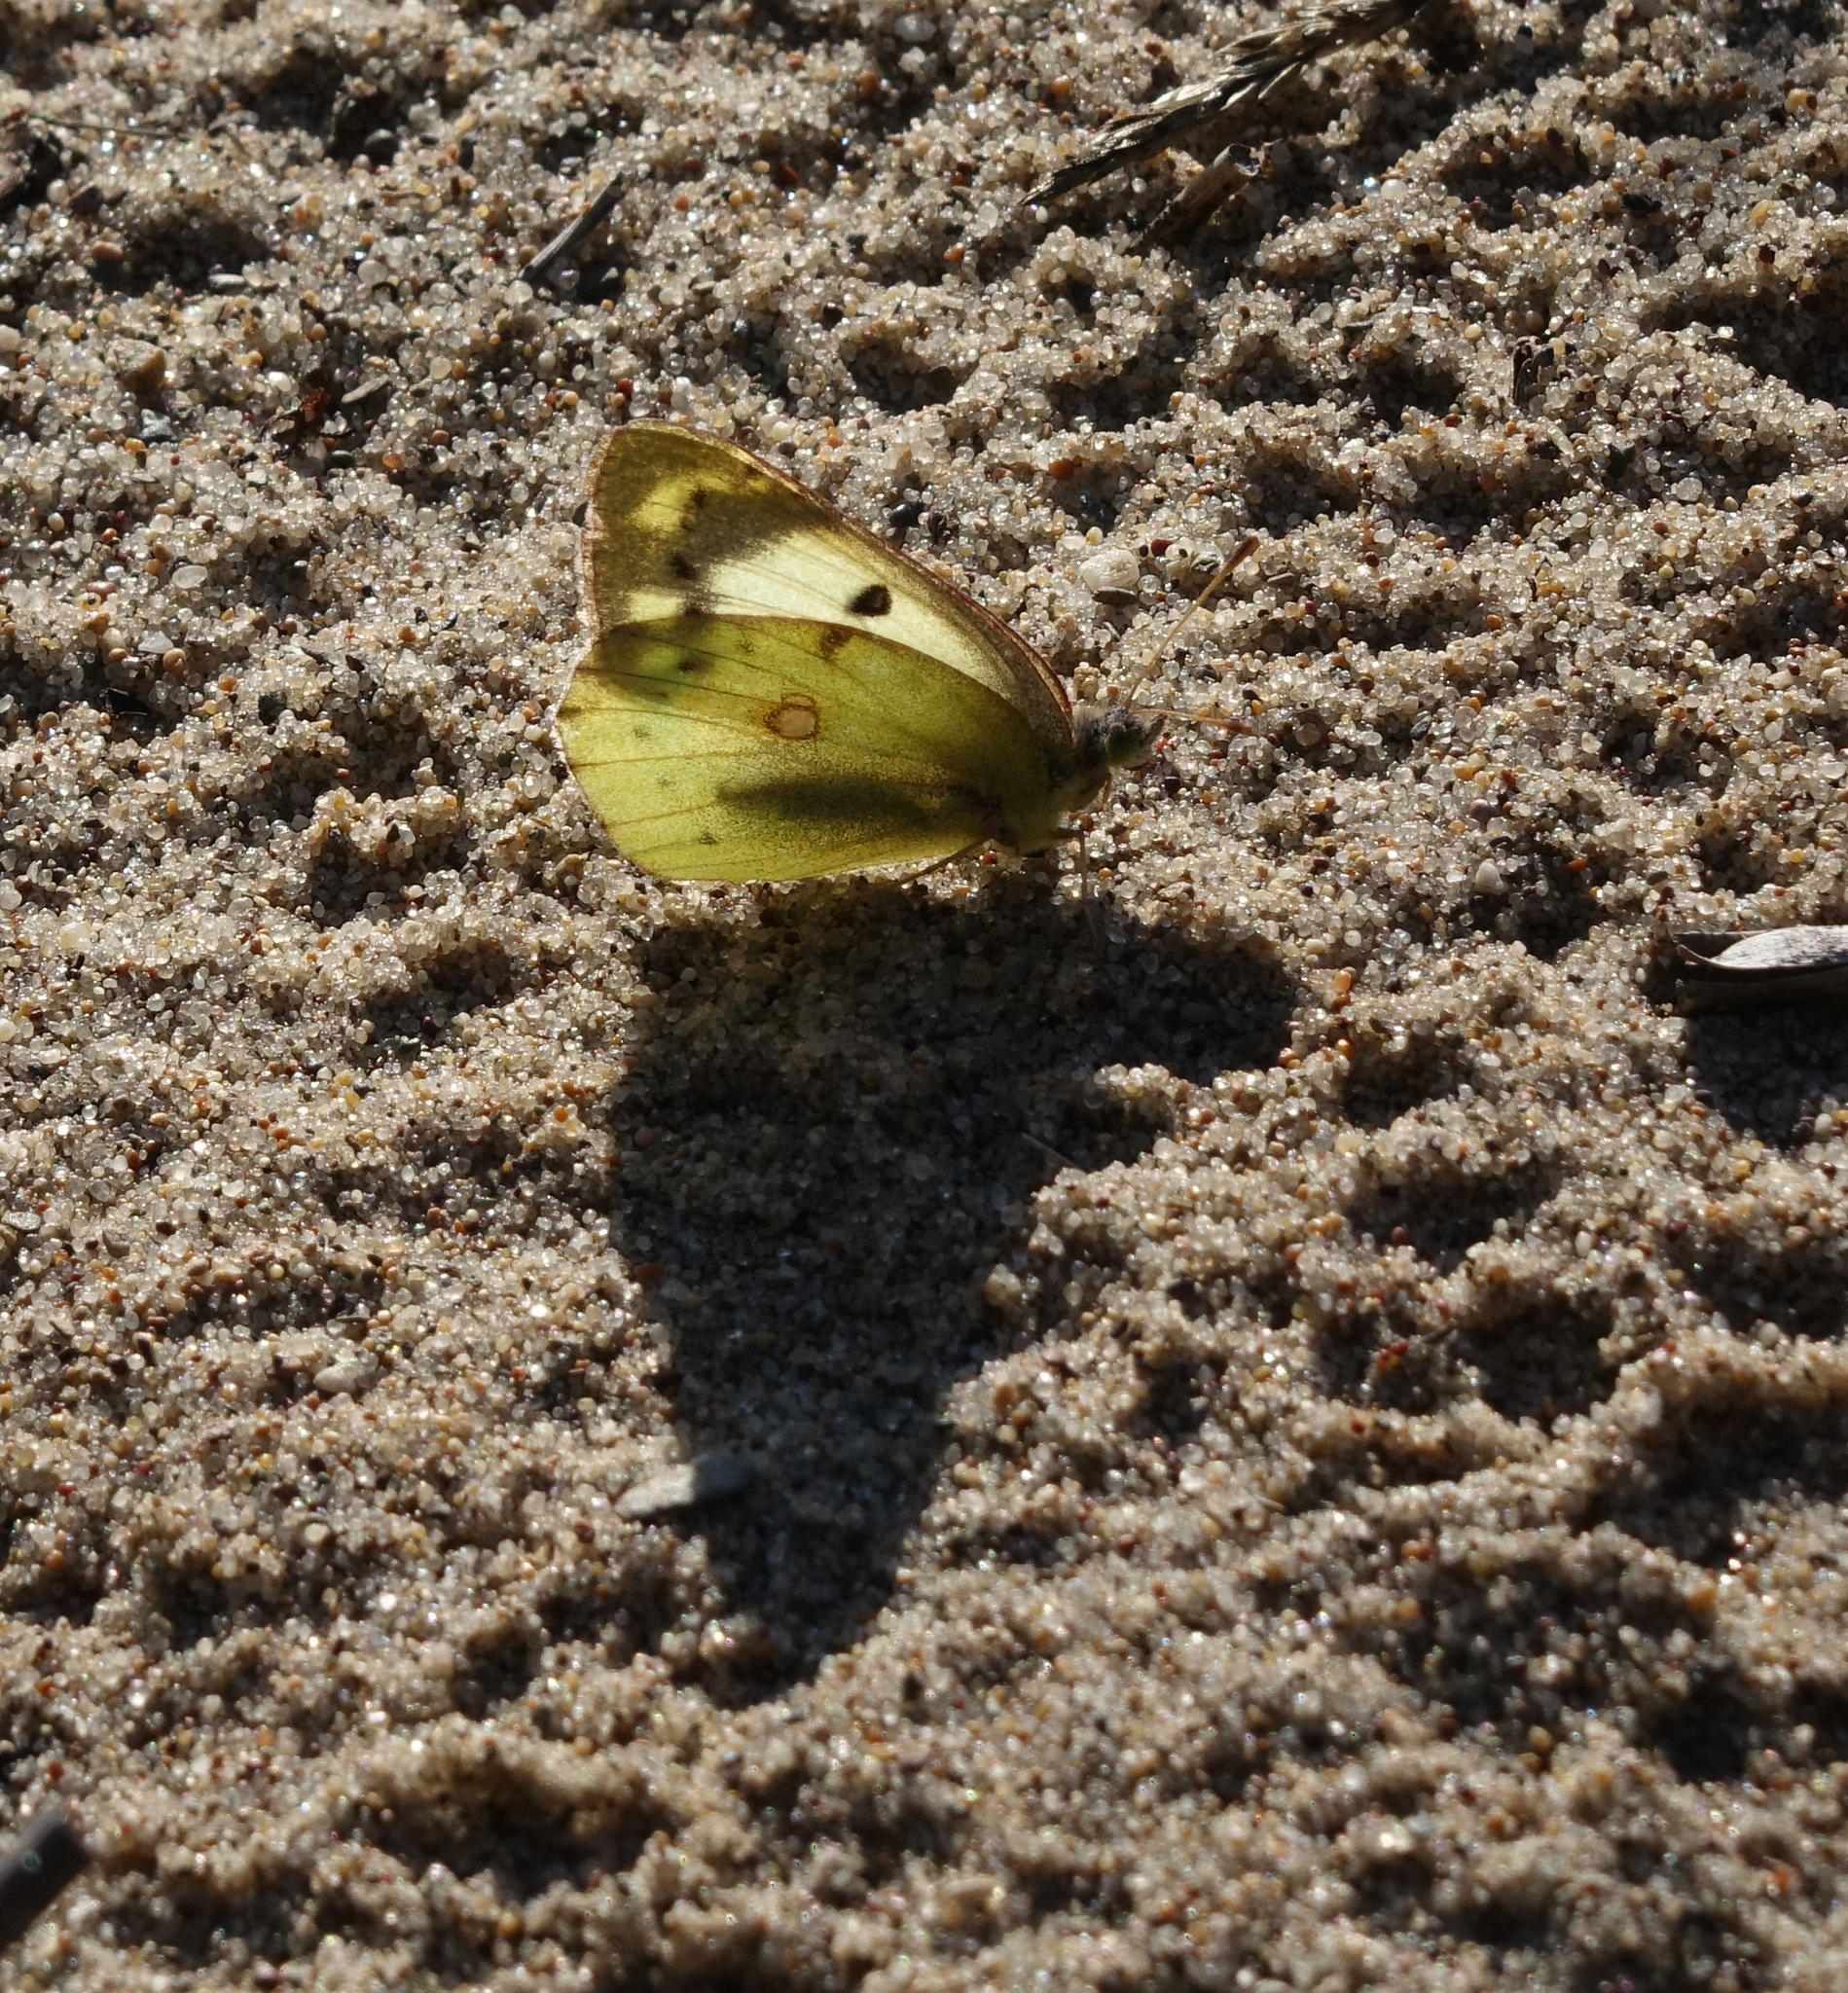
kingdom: Animalia
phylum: Arthropoda
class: Insecta
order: Lepidoptera
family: Pieridae
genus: Colias
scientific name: Colias hyale
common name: Pale clouded yellow
